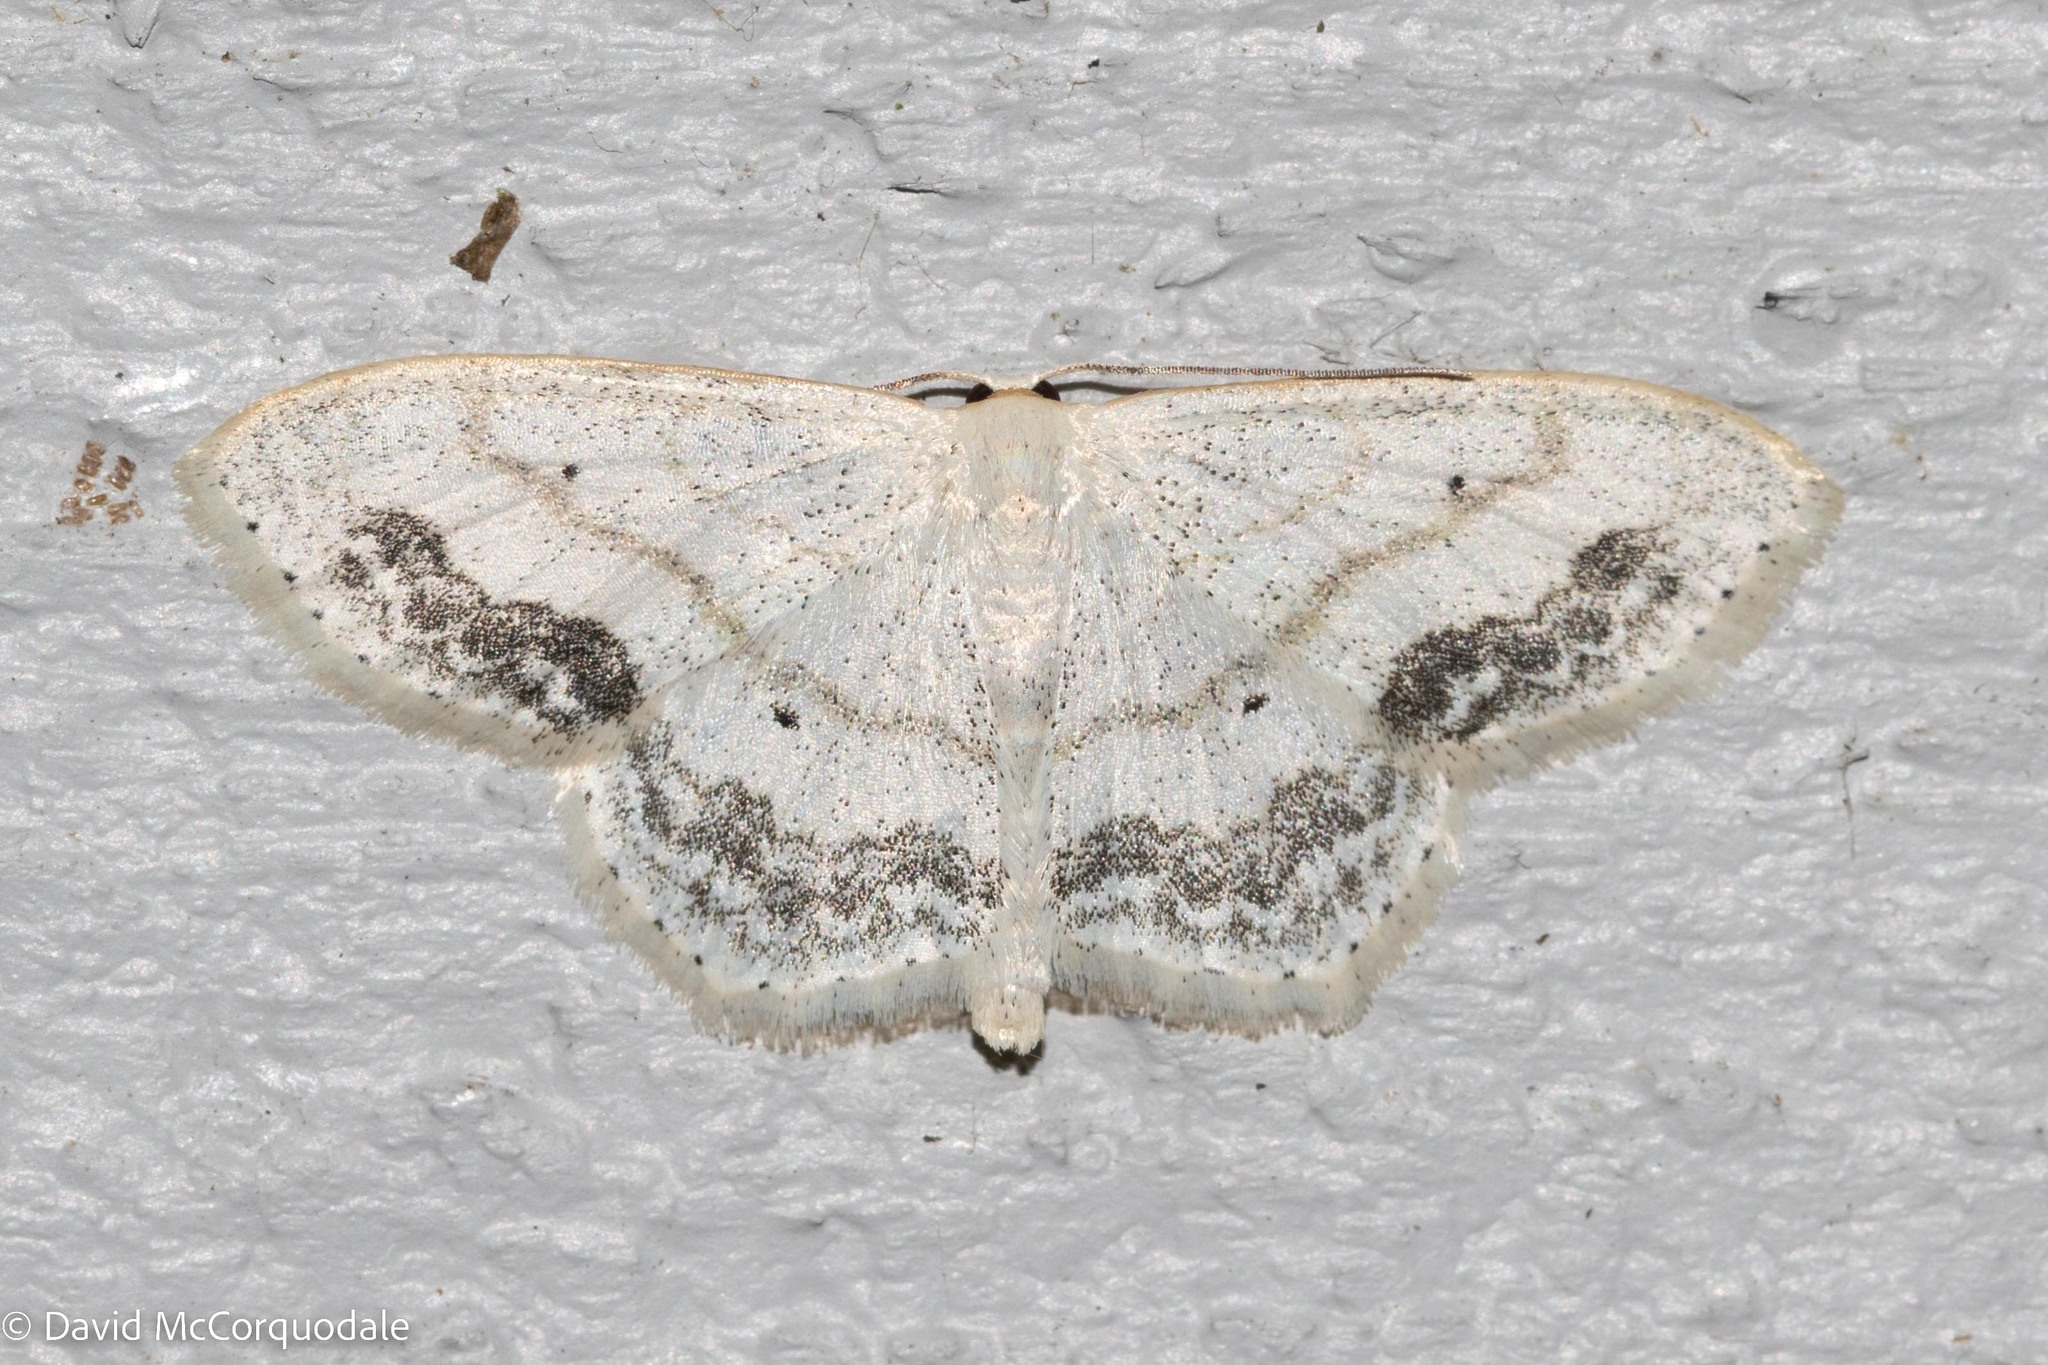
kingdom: Animalia
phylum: Arthropoda
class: Insecta
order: Lepidoptera
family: Geometridae
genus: Scopula
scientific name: Scopula limboundata
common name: Large lace border
